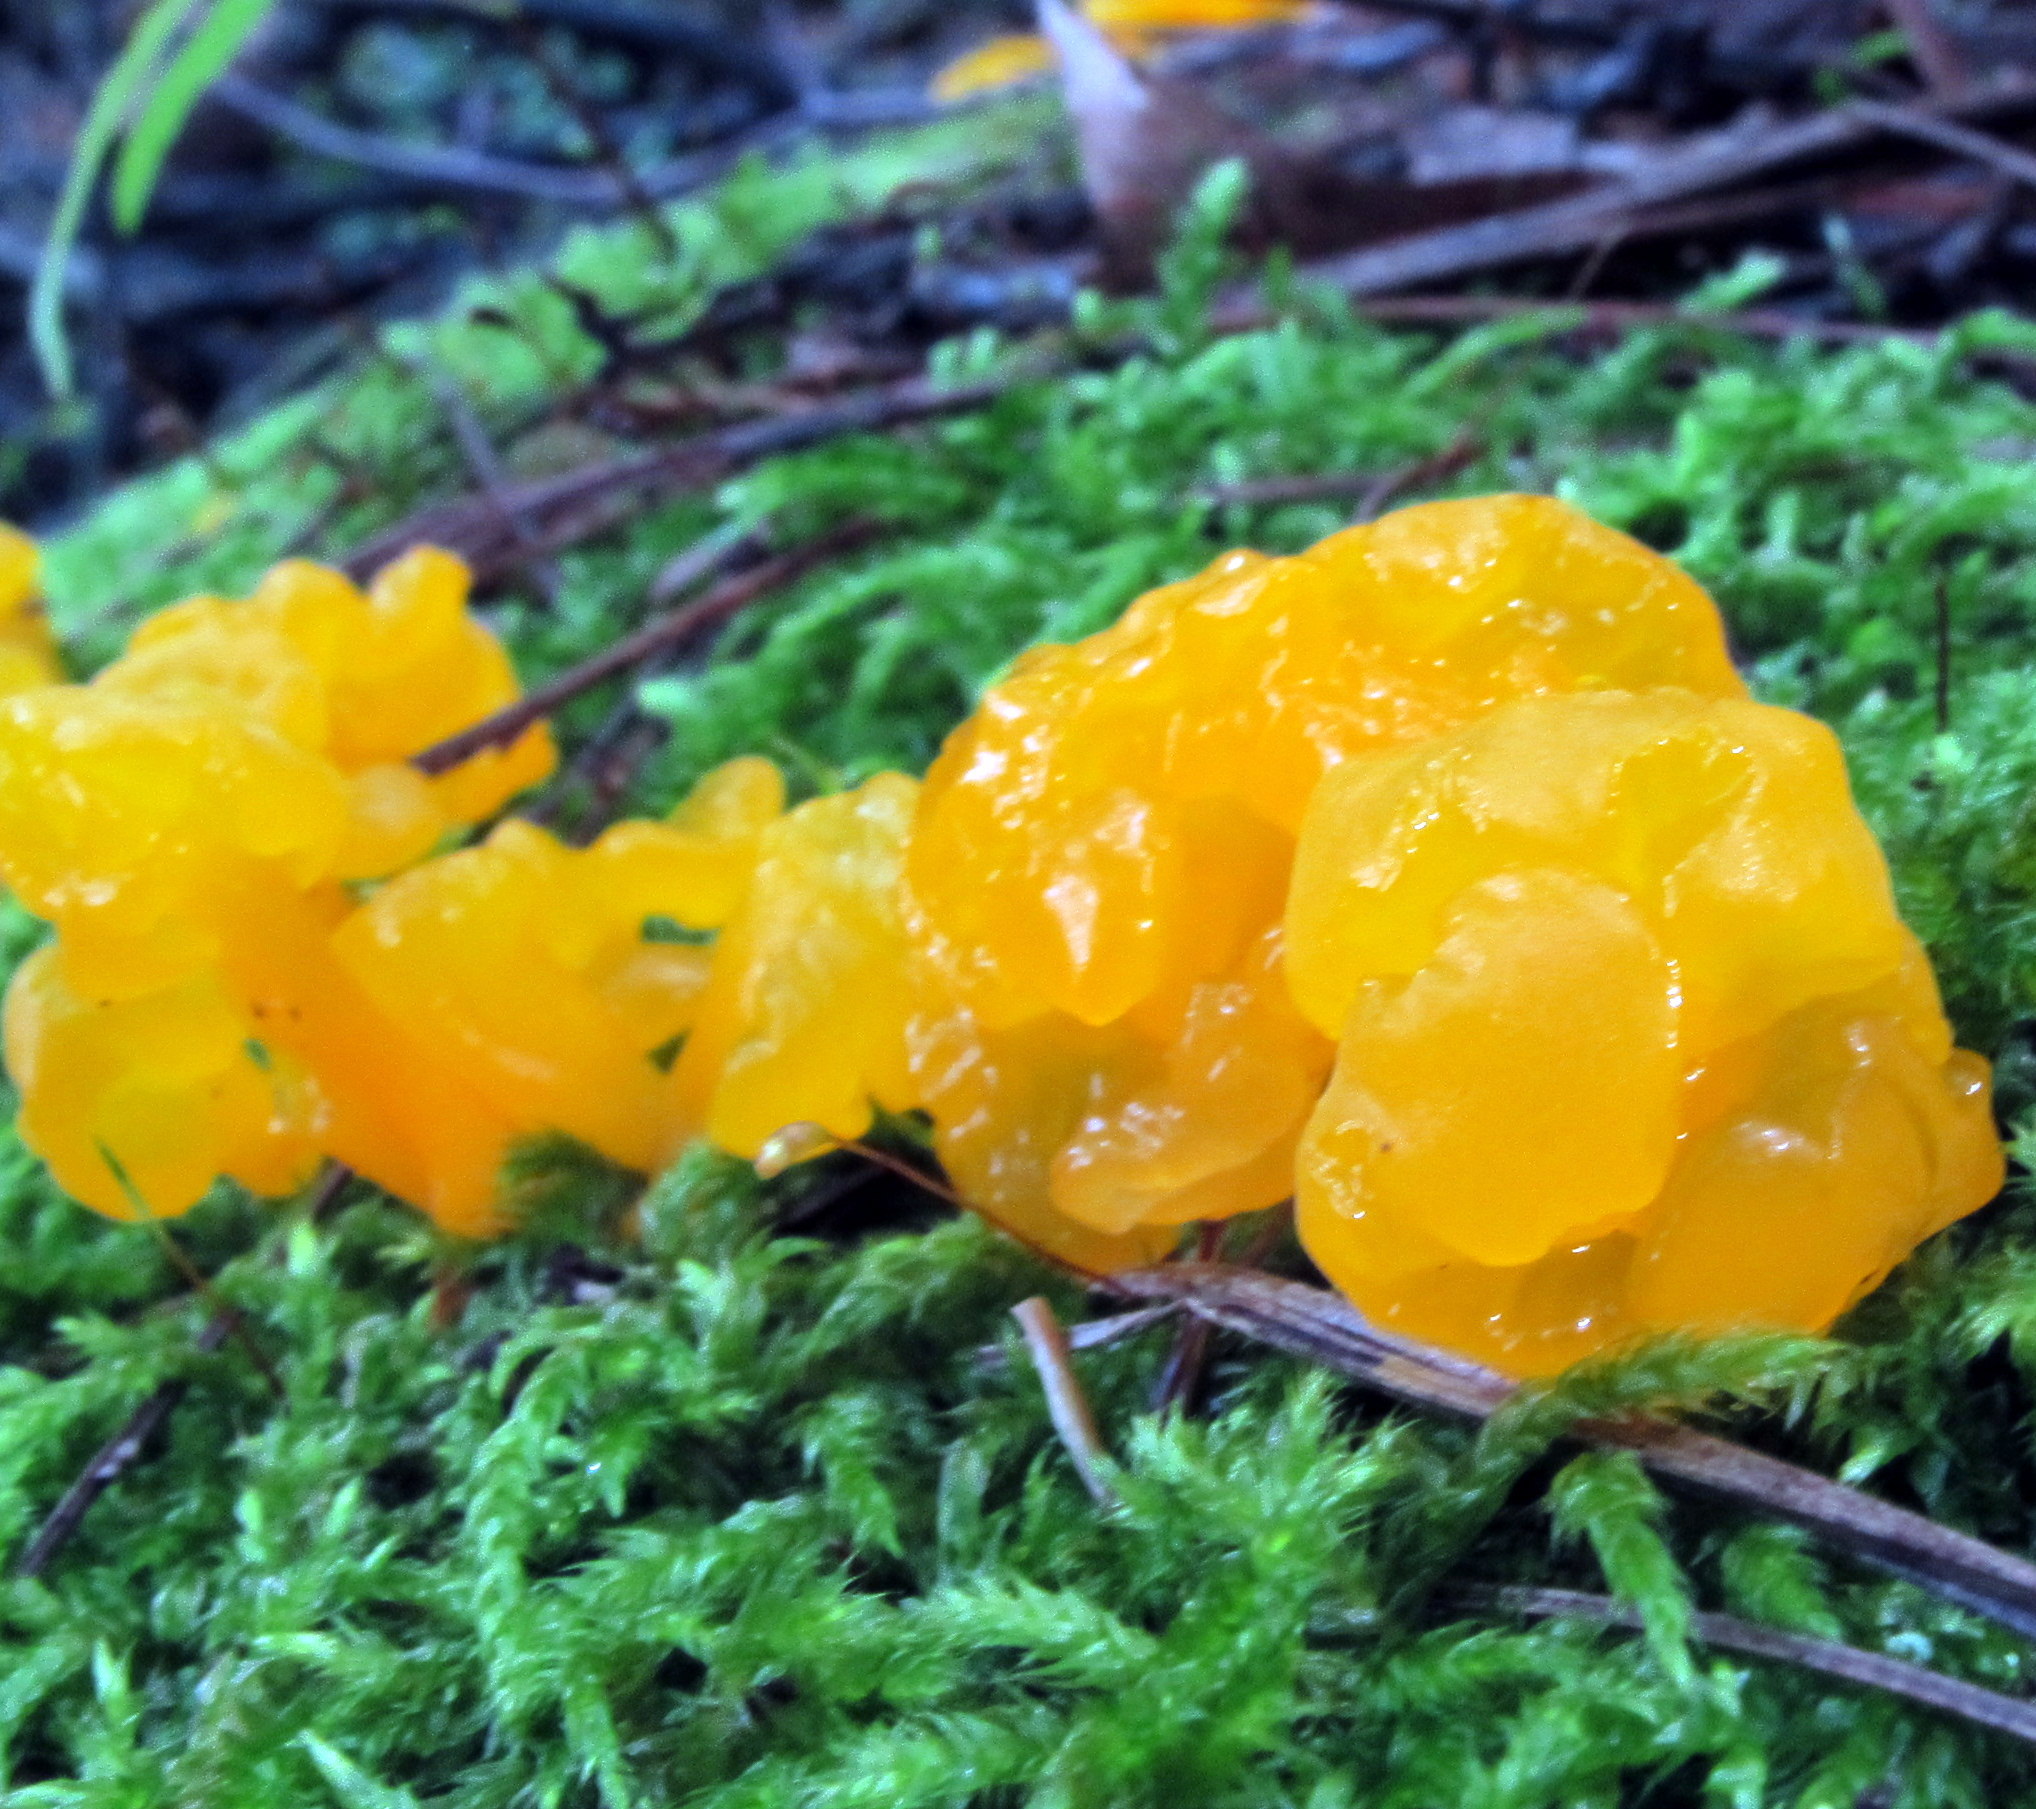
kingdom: Fungi
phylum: Basidiomycota
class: Dacrymycetes
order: Dacrymycetales
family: Dacrymycetaceae
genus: Dacrymyces
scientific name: Dacrymyces chrysospermus
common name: Orange jelly spot
